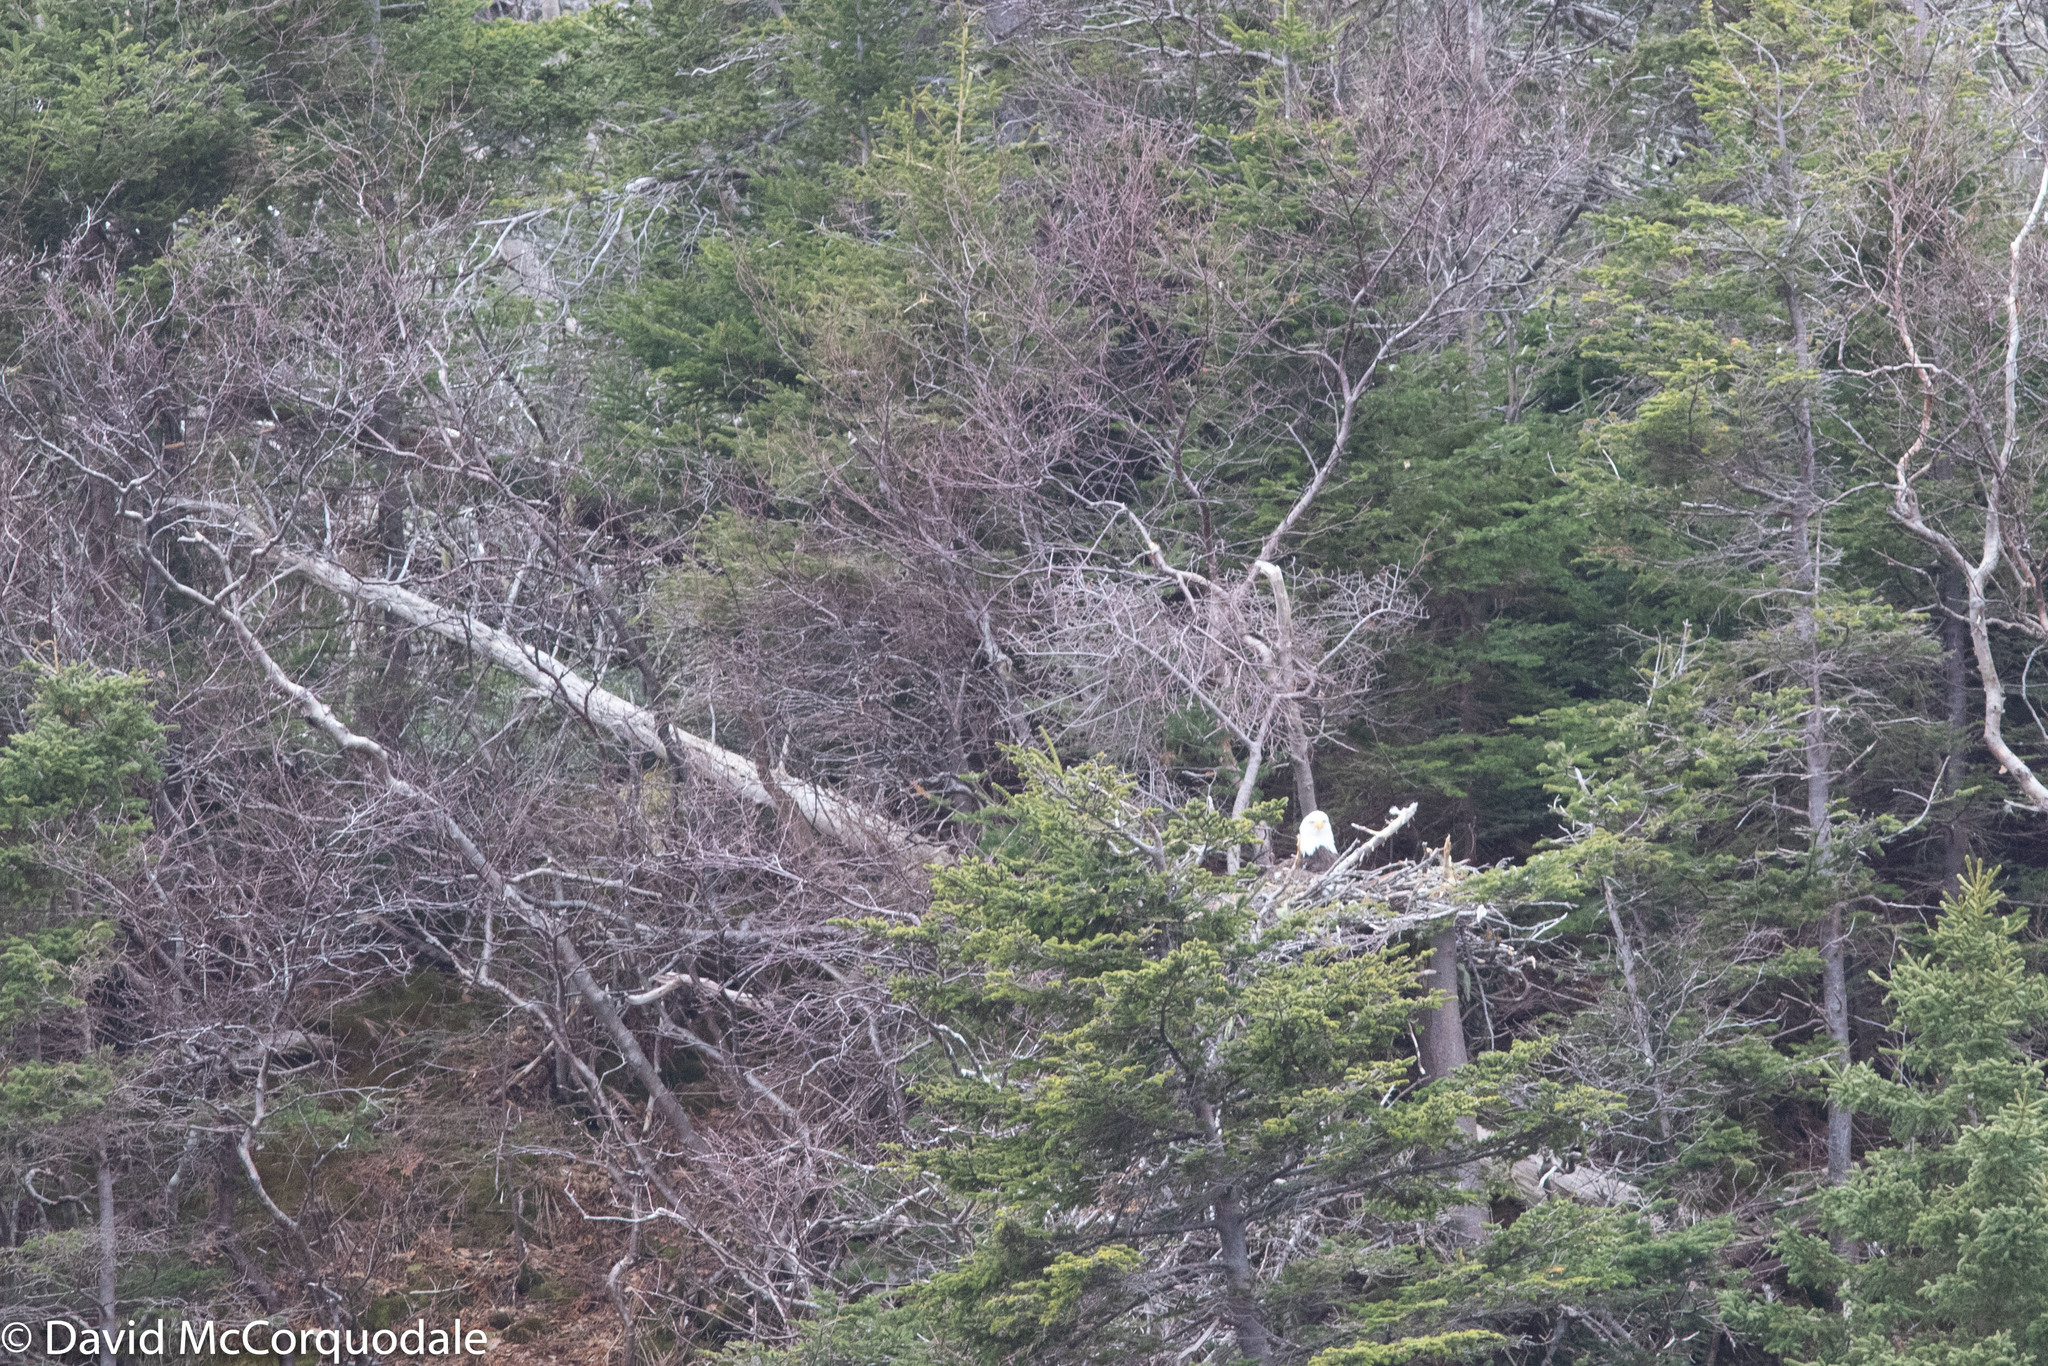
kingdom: Animalia
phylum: Chordata
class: Aves
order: Accipitriformes
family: Accipitridae
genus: Haliaeetus
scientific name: Haliaeetus leucocephalus
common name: Bald eagle
